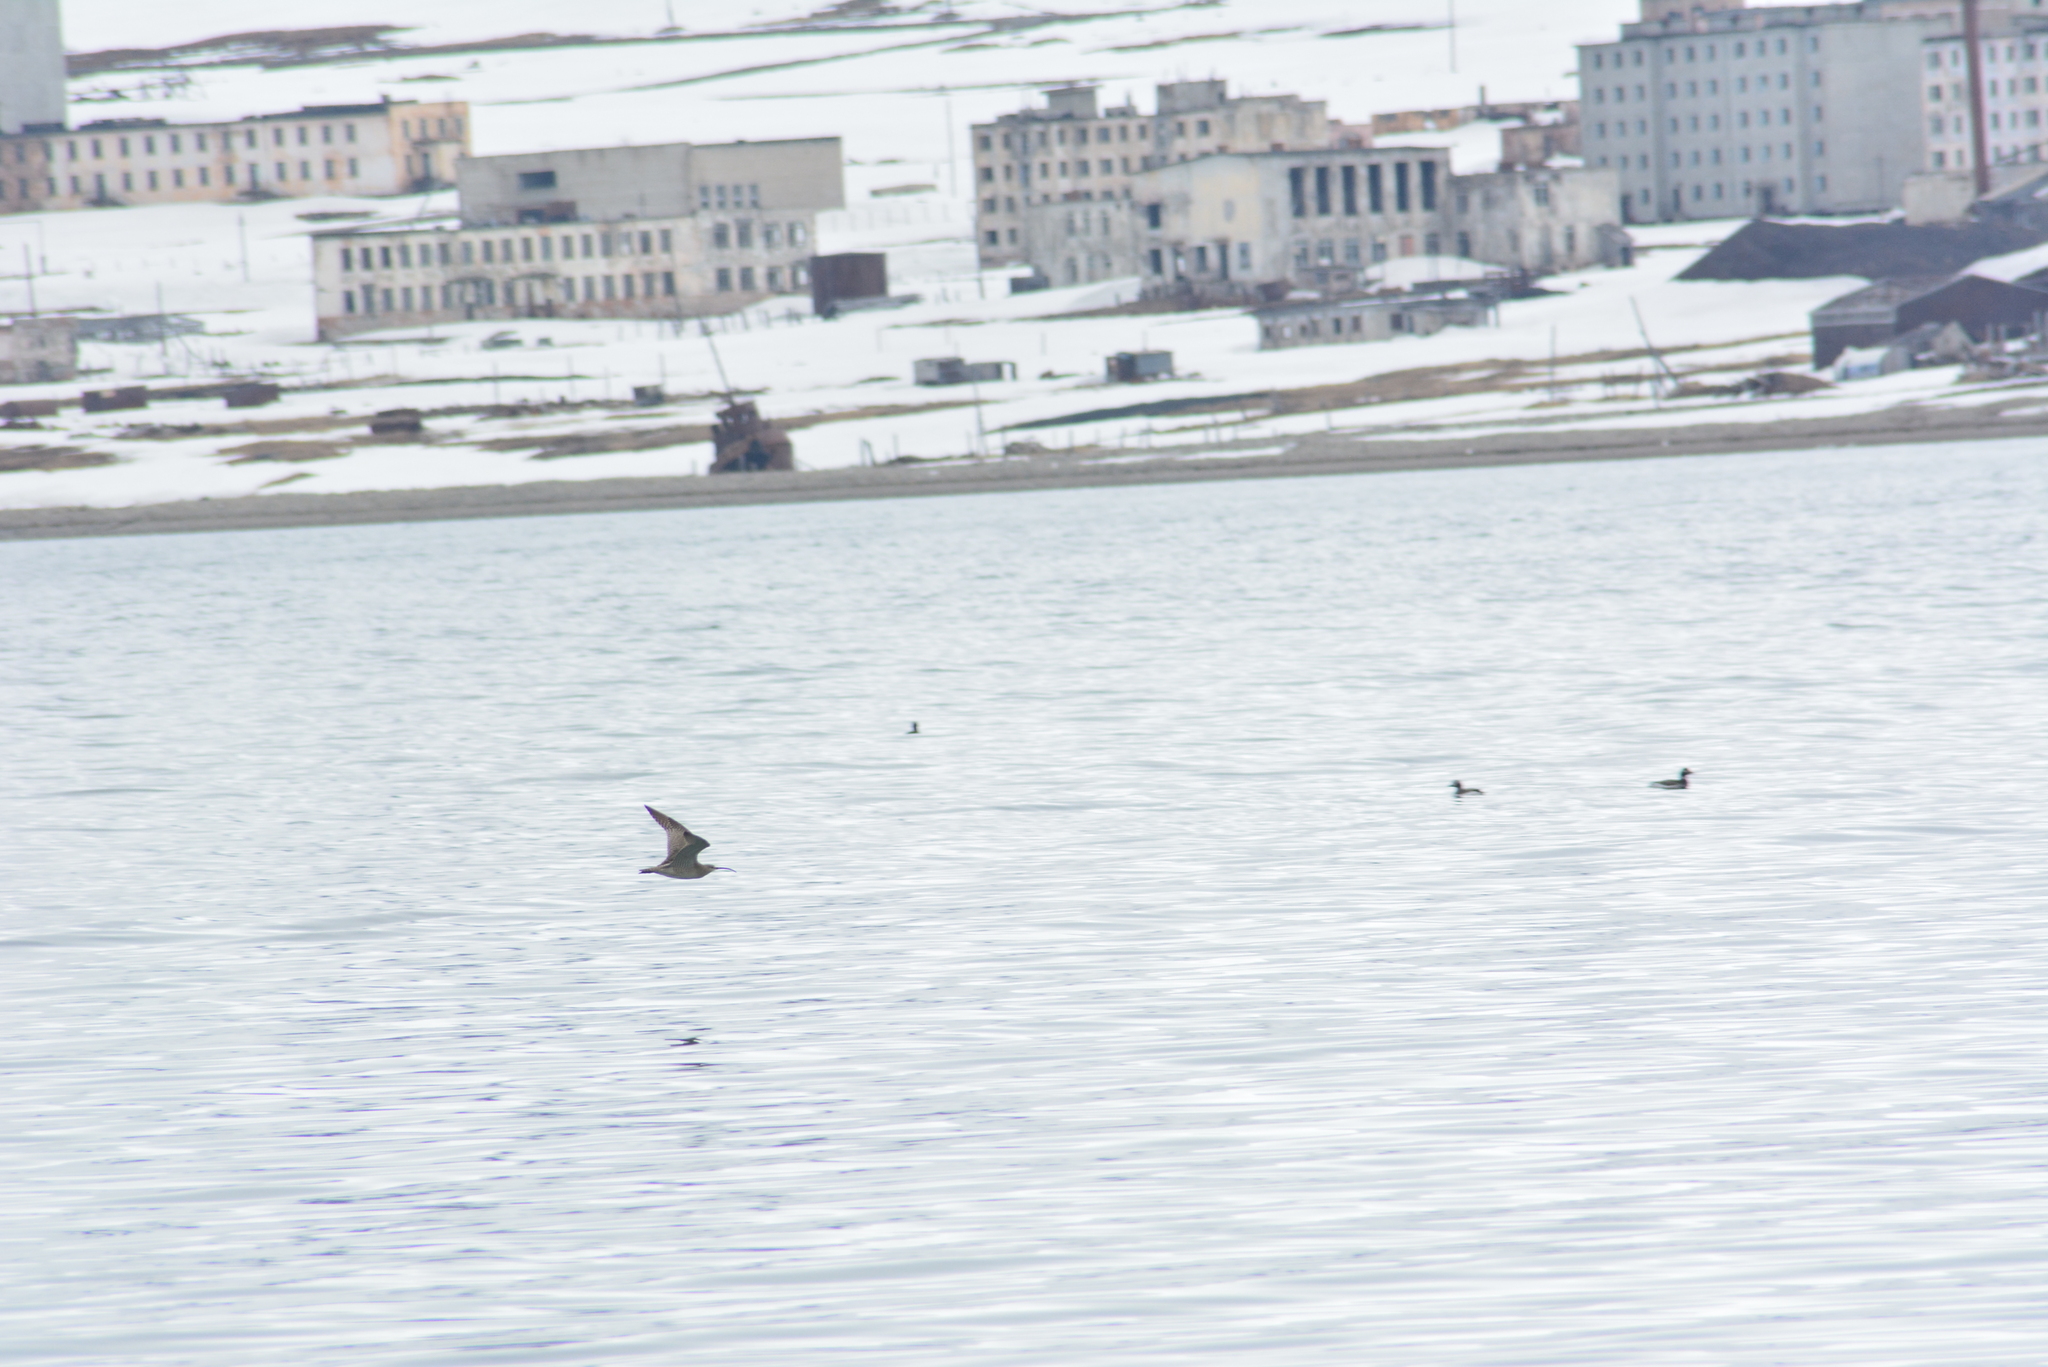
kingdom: Animalia
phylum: Chordata
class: Aves
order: Charadriiformes
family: Scolopacidae
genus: Numenius
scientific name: Numenius phaeopus
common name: Whimbrel
